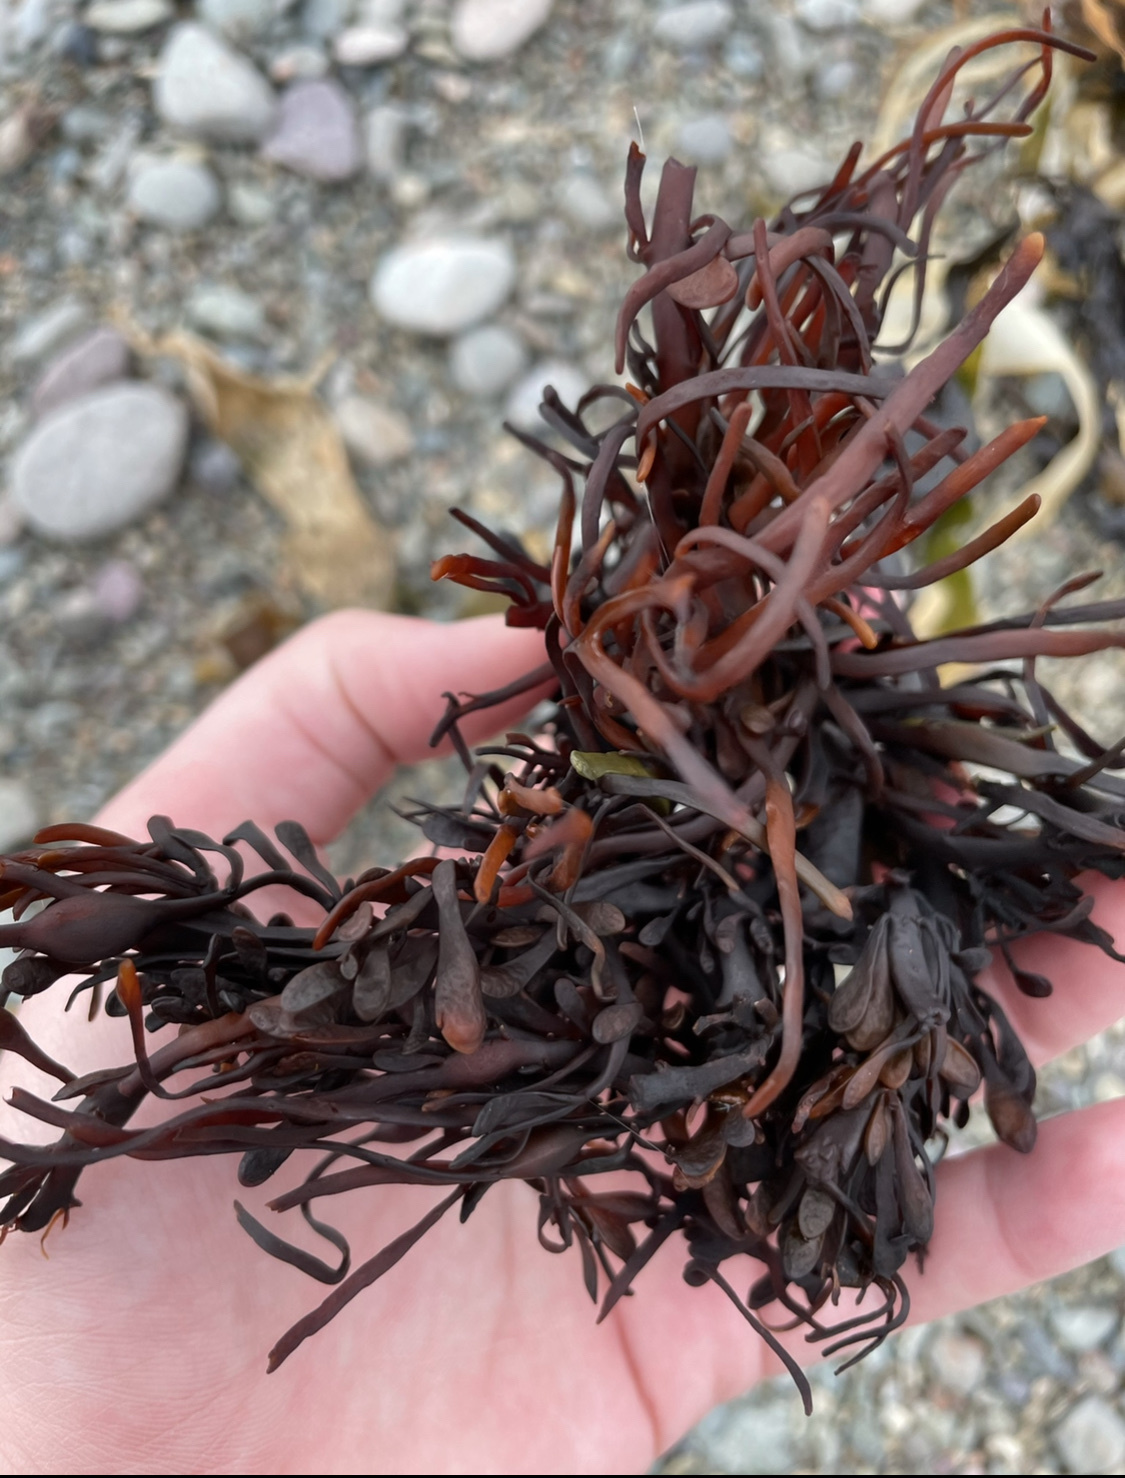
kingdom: Chromista
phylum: Ochrophyta
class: Phaeophyceae
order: Fucales
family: Fucaceae
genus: Ascophyllum
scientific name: Ascophyllum nodosum
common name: Knotted wrack
